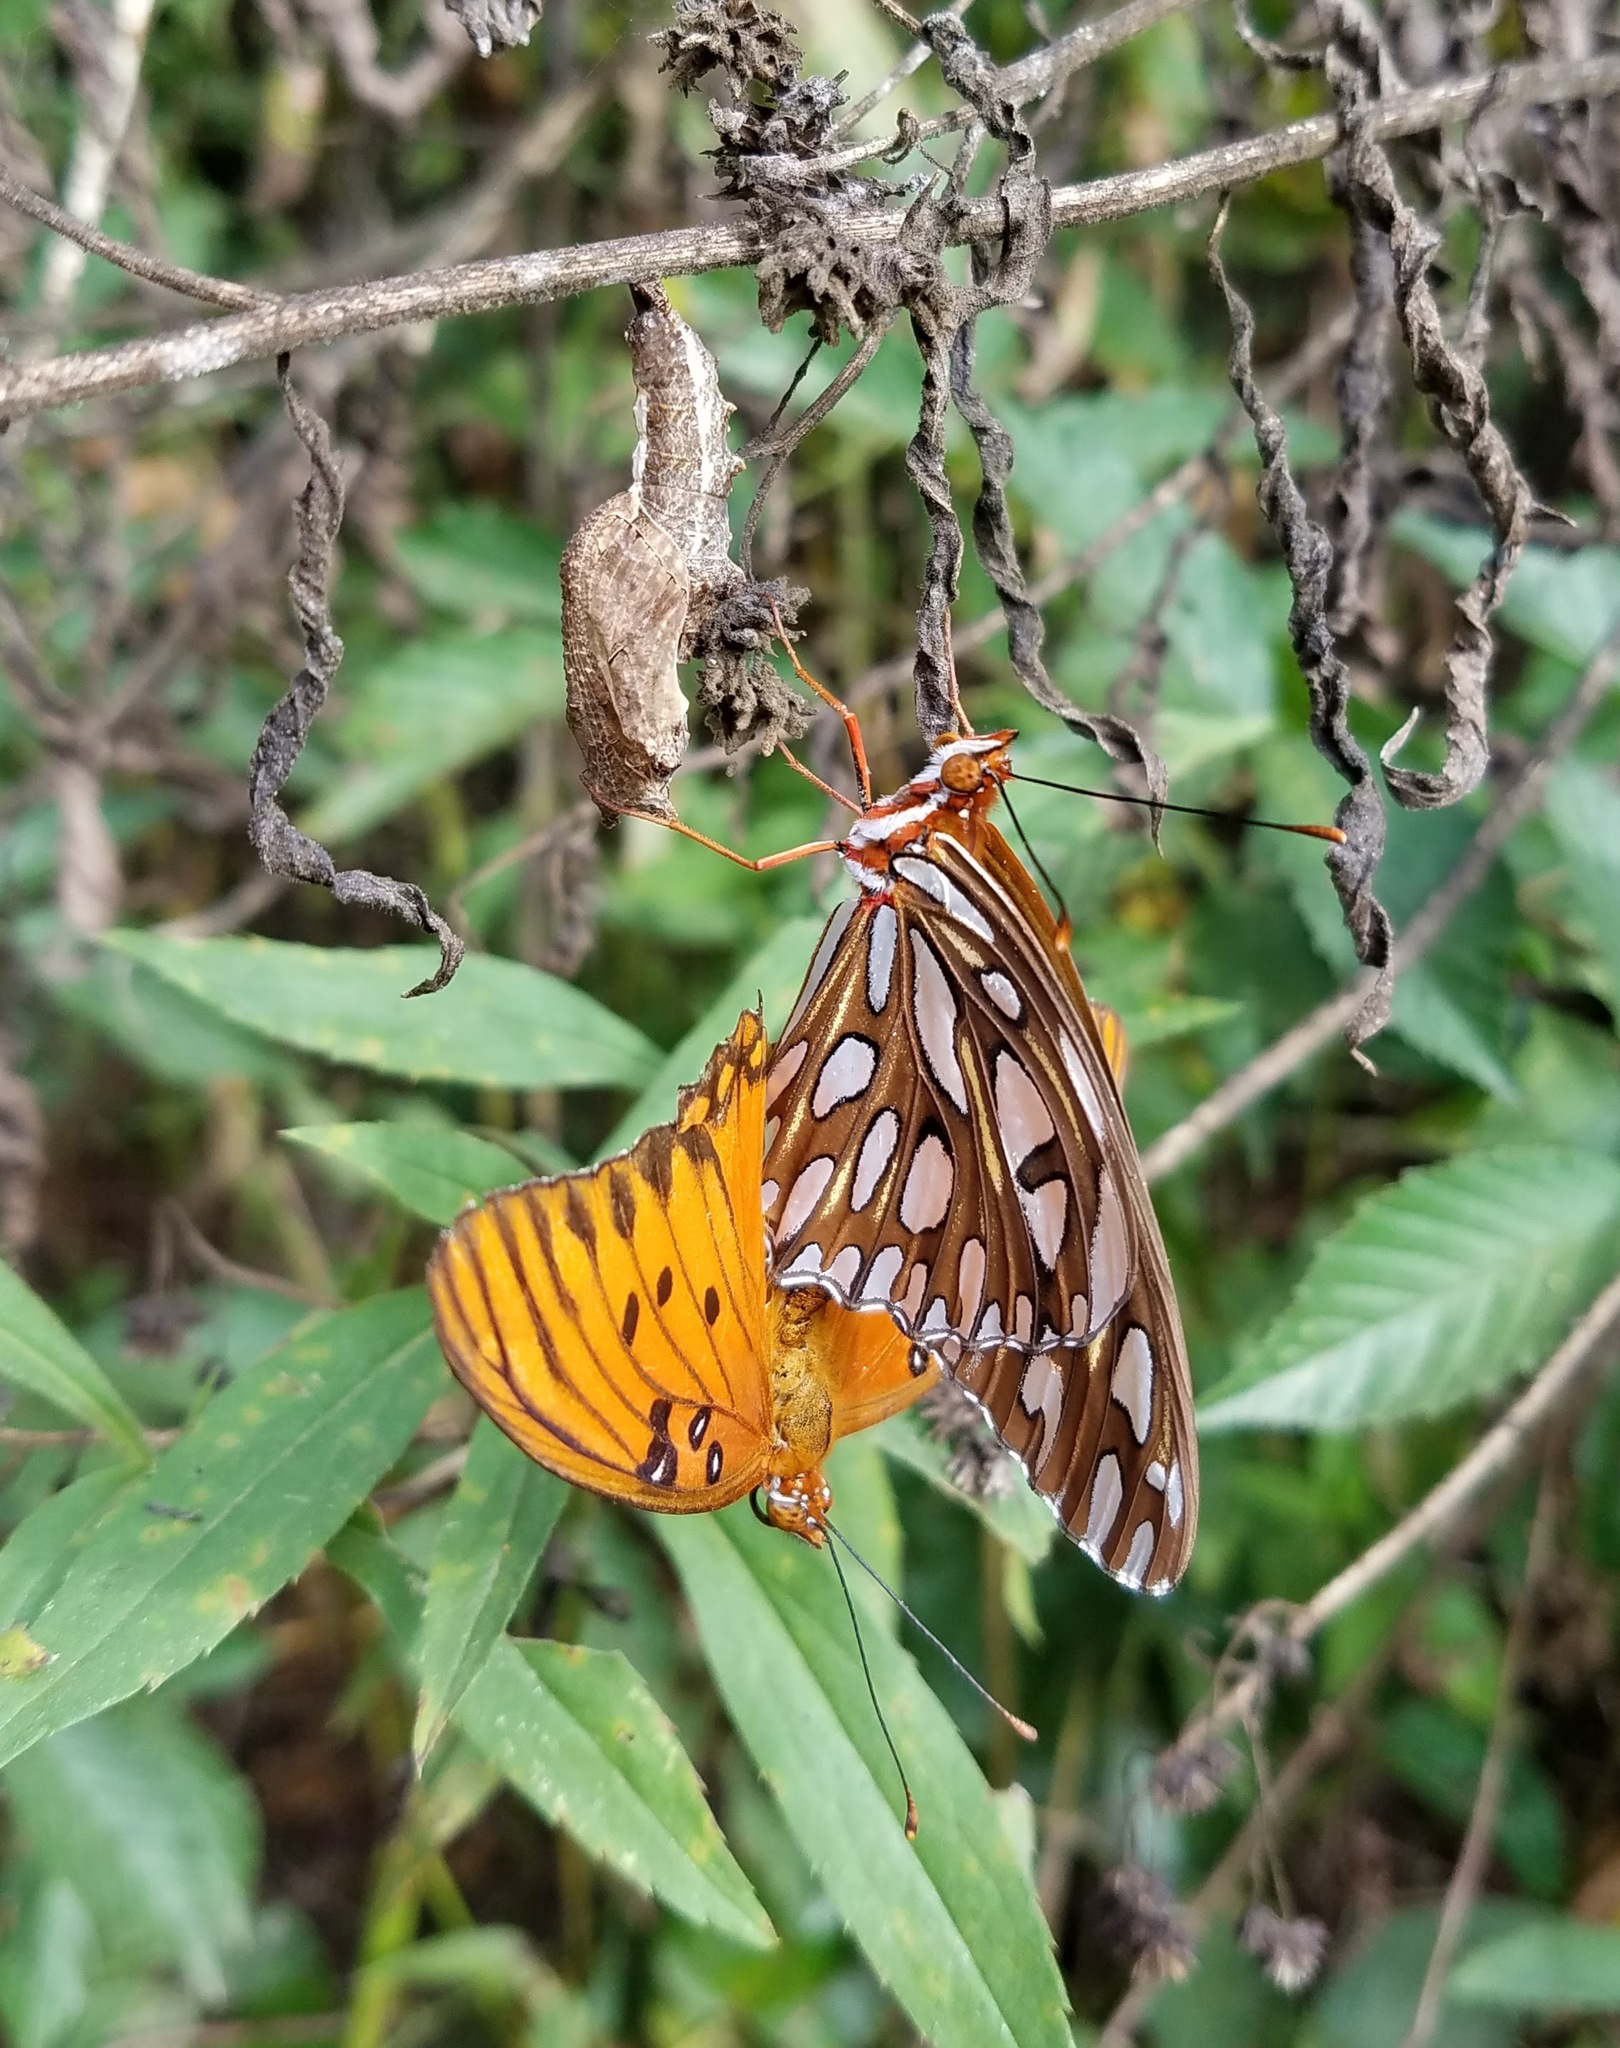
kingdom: Animalia
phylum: Arthropoda
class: Insecta
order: Lepidoptera
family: Nymphalidae
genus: Dione
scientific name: Dione vanillae
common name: Gulf fritillary
